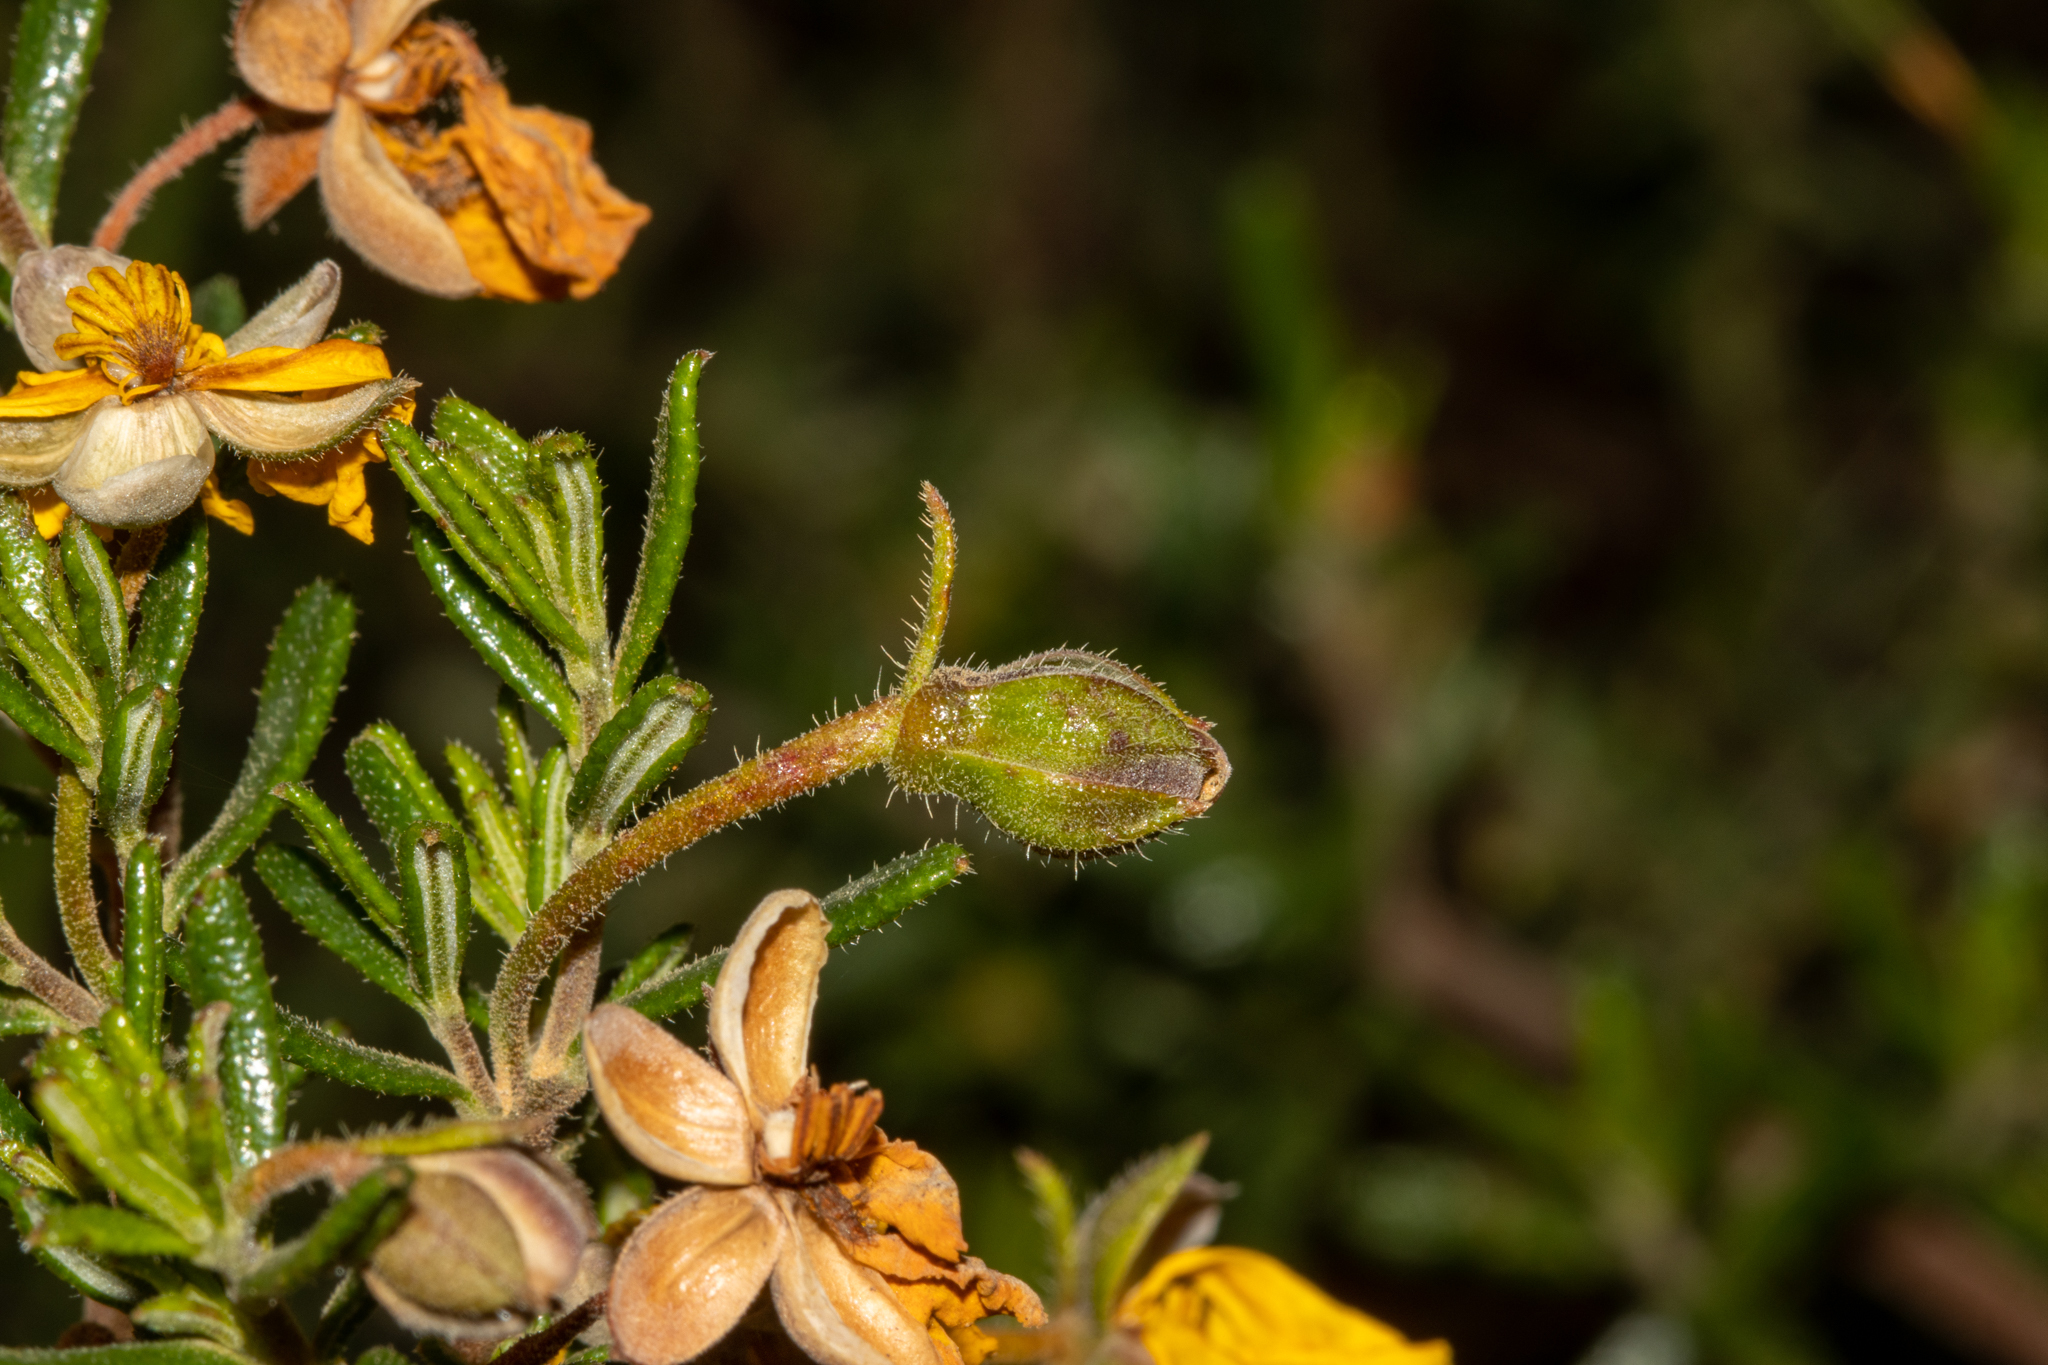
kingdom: Plantae
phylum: Tracheophyta
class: Magnoliopsida
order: Dilleniales
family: Dilleniaceae
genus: Hibbertia
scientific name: Hibbertia hypericoides
